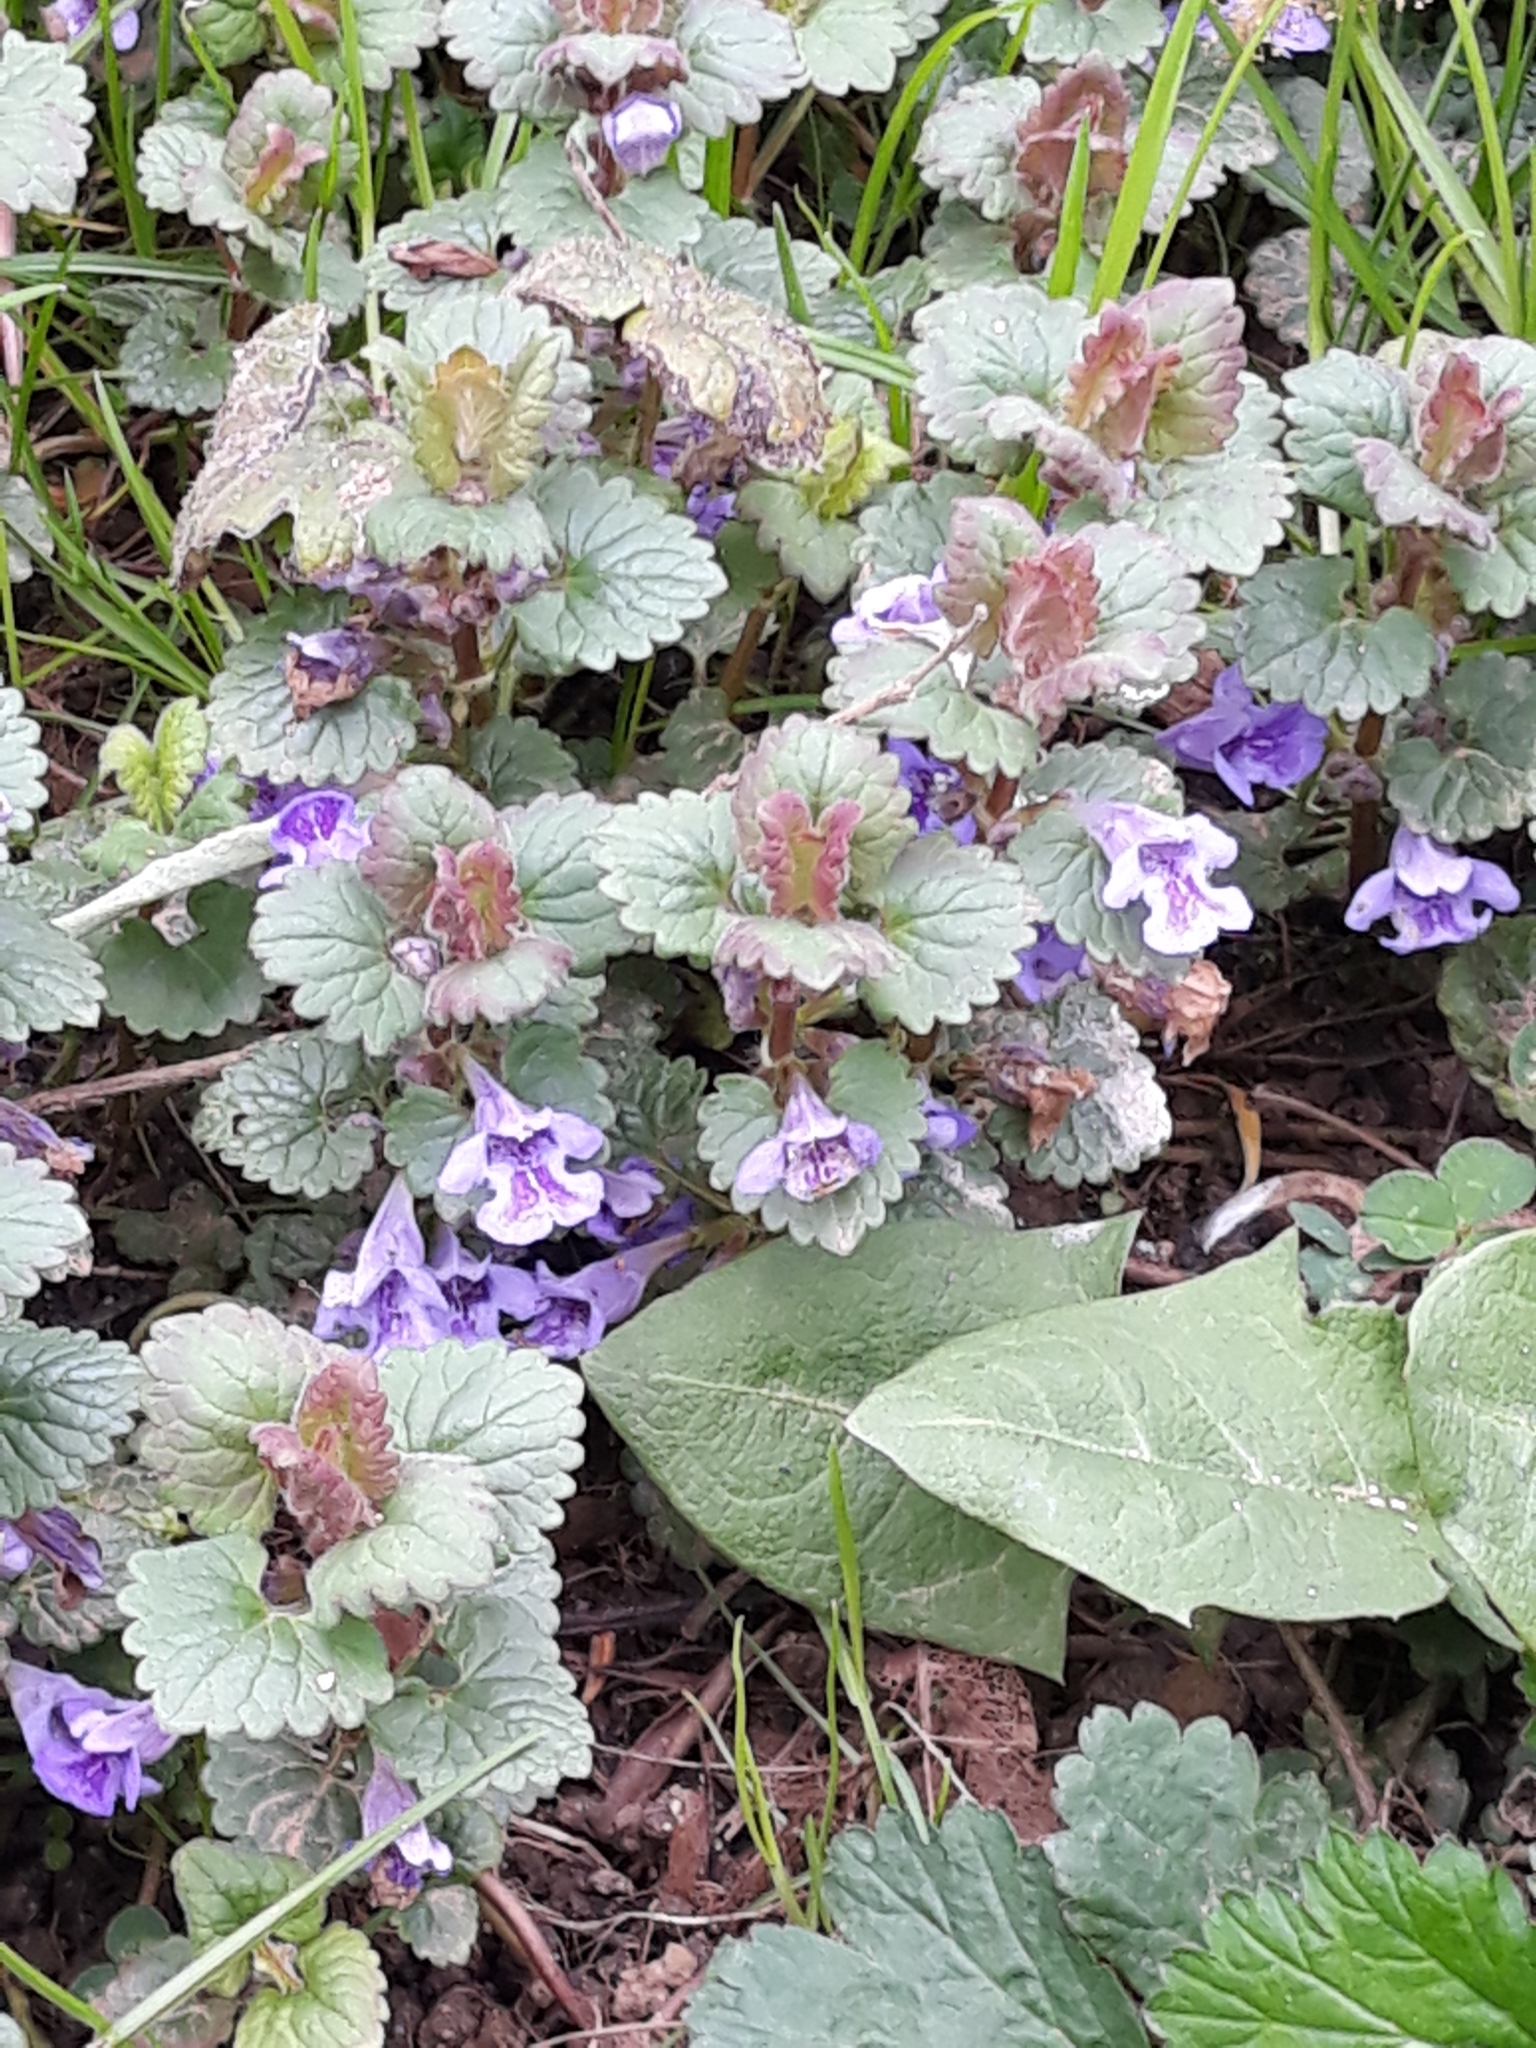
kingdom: Plantae
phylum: Tracheophyta
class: Magnoliopsida
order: Lamiales
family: Lamiaceae
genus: Glechoma
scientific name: Glechoma hederacea
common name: Ground ivy
